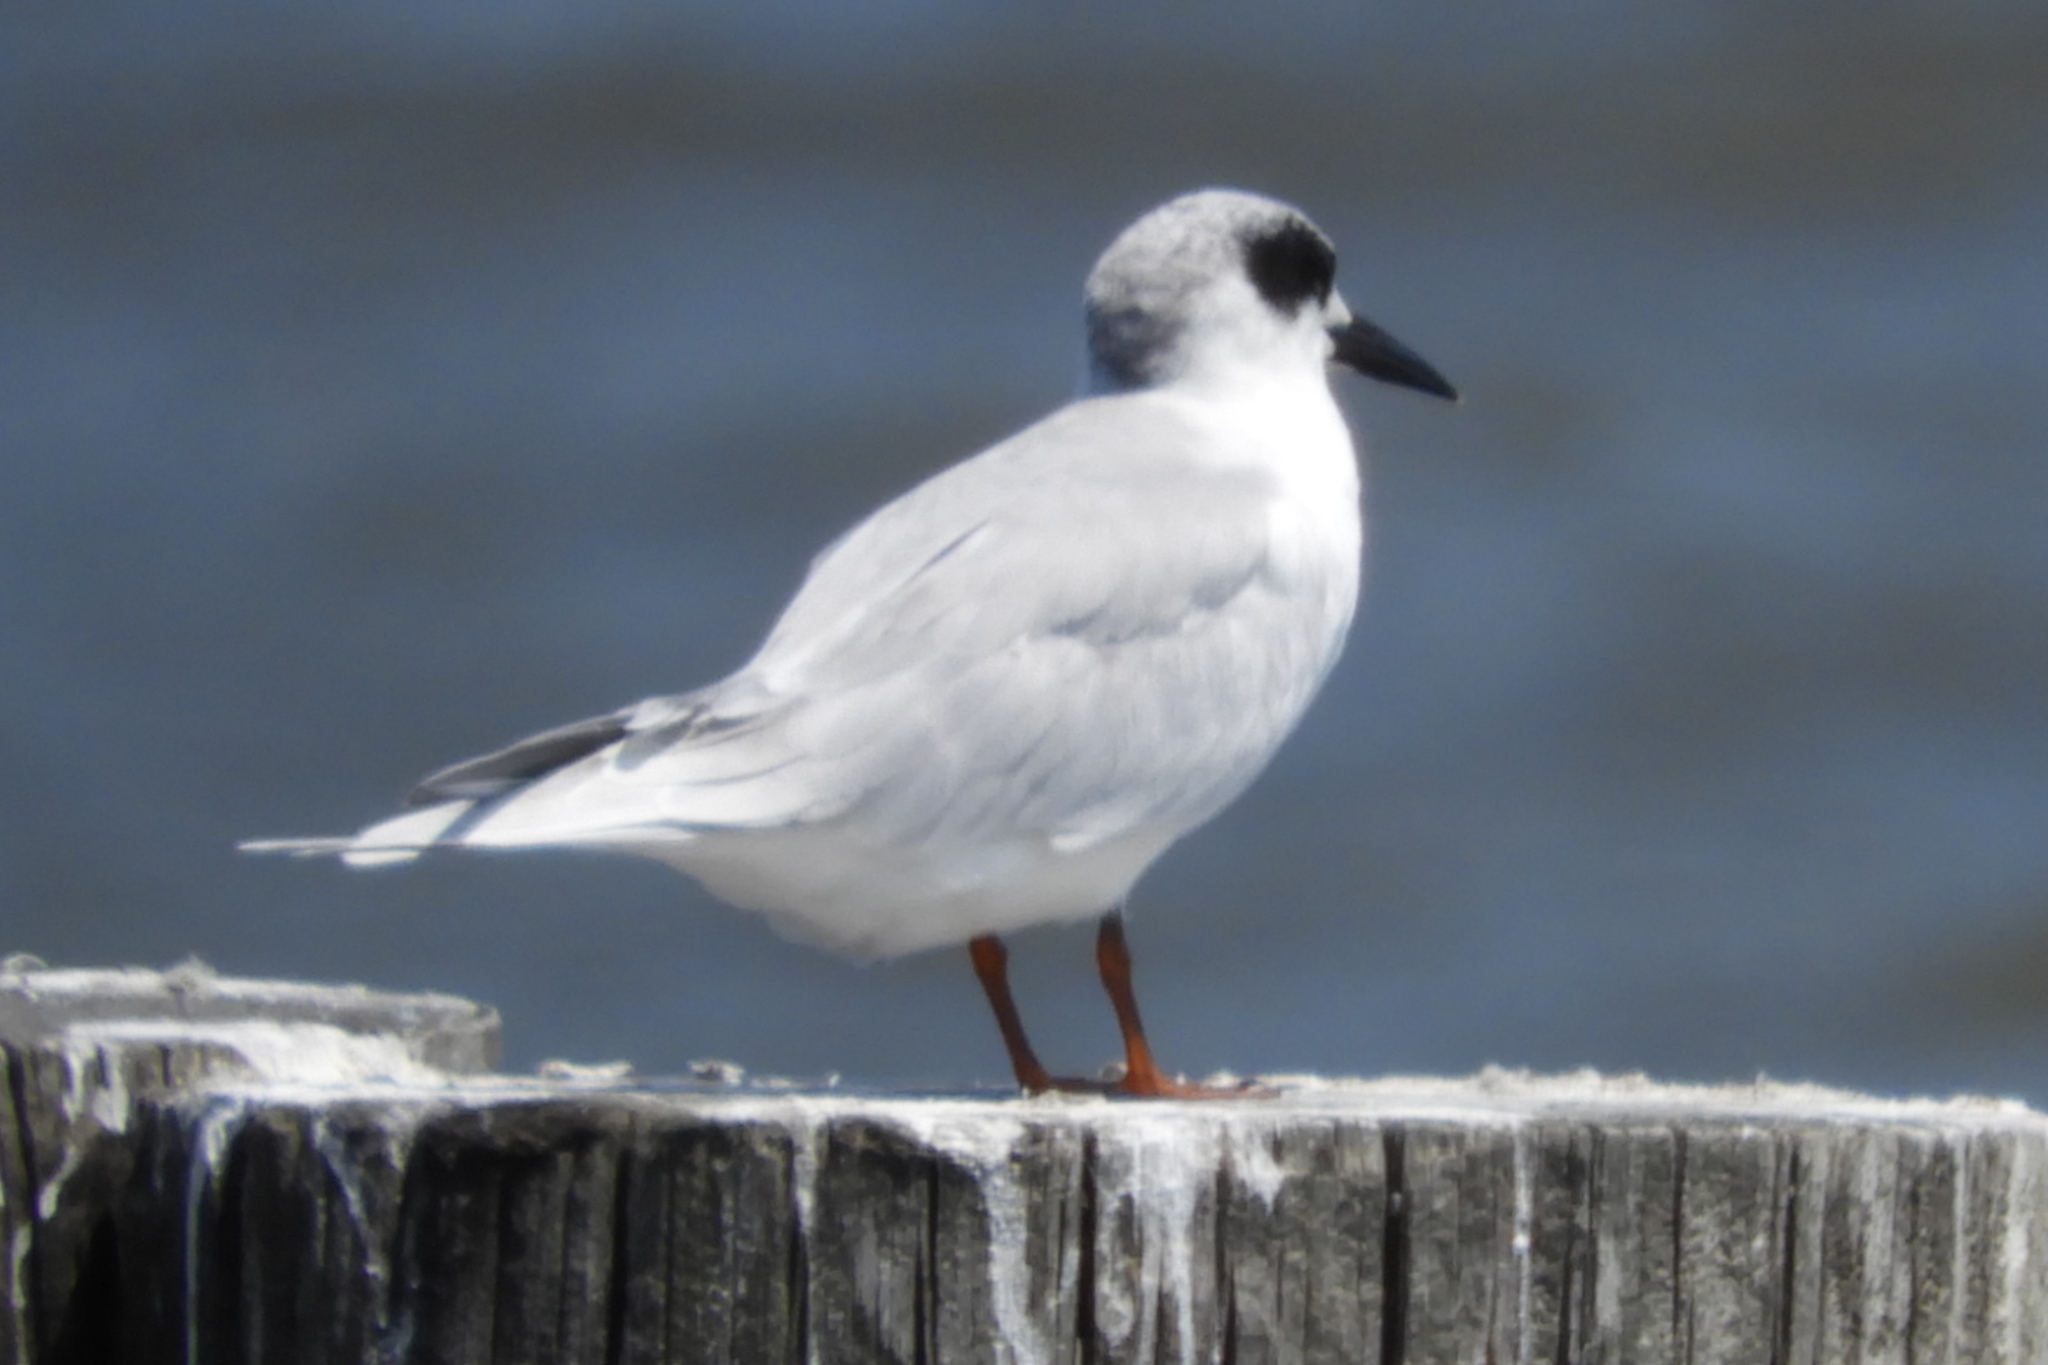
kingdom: Animalia
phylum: Chordata
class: Aves
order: Charadriiformes
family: Laridae
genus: Sterna
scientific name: Sterna forsteri
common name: Forster's tern
